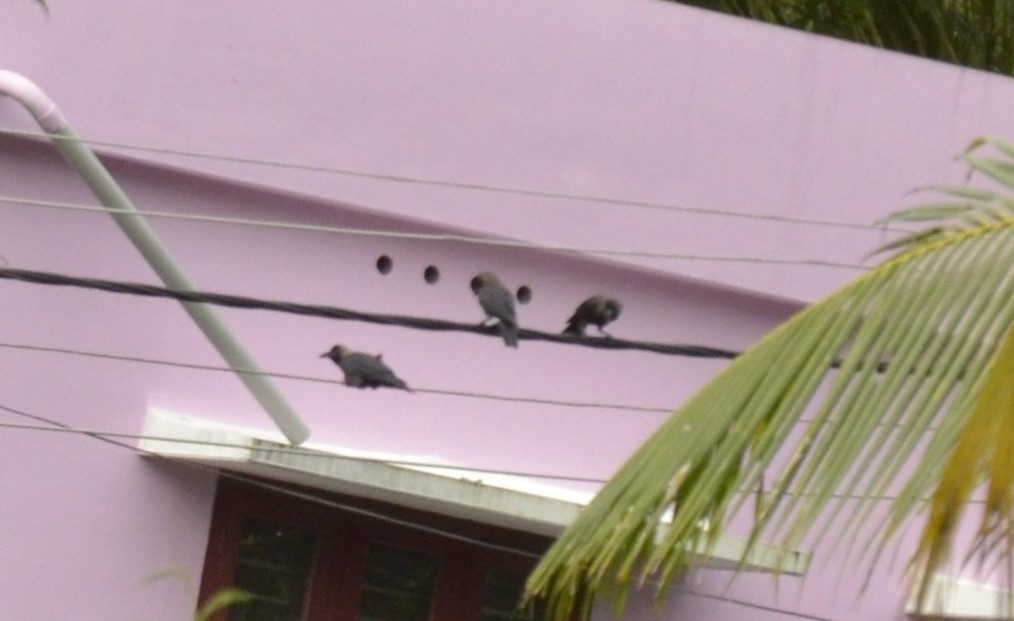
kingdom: Animalia
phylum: Chordata
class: Aves
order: Passeriformes
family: Corvidae
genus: Corvus
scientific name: Corvus splendens
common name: House crow
